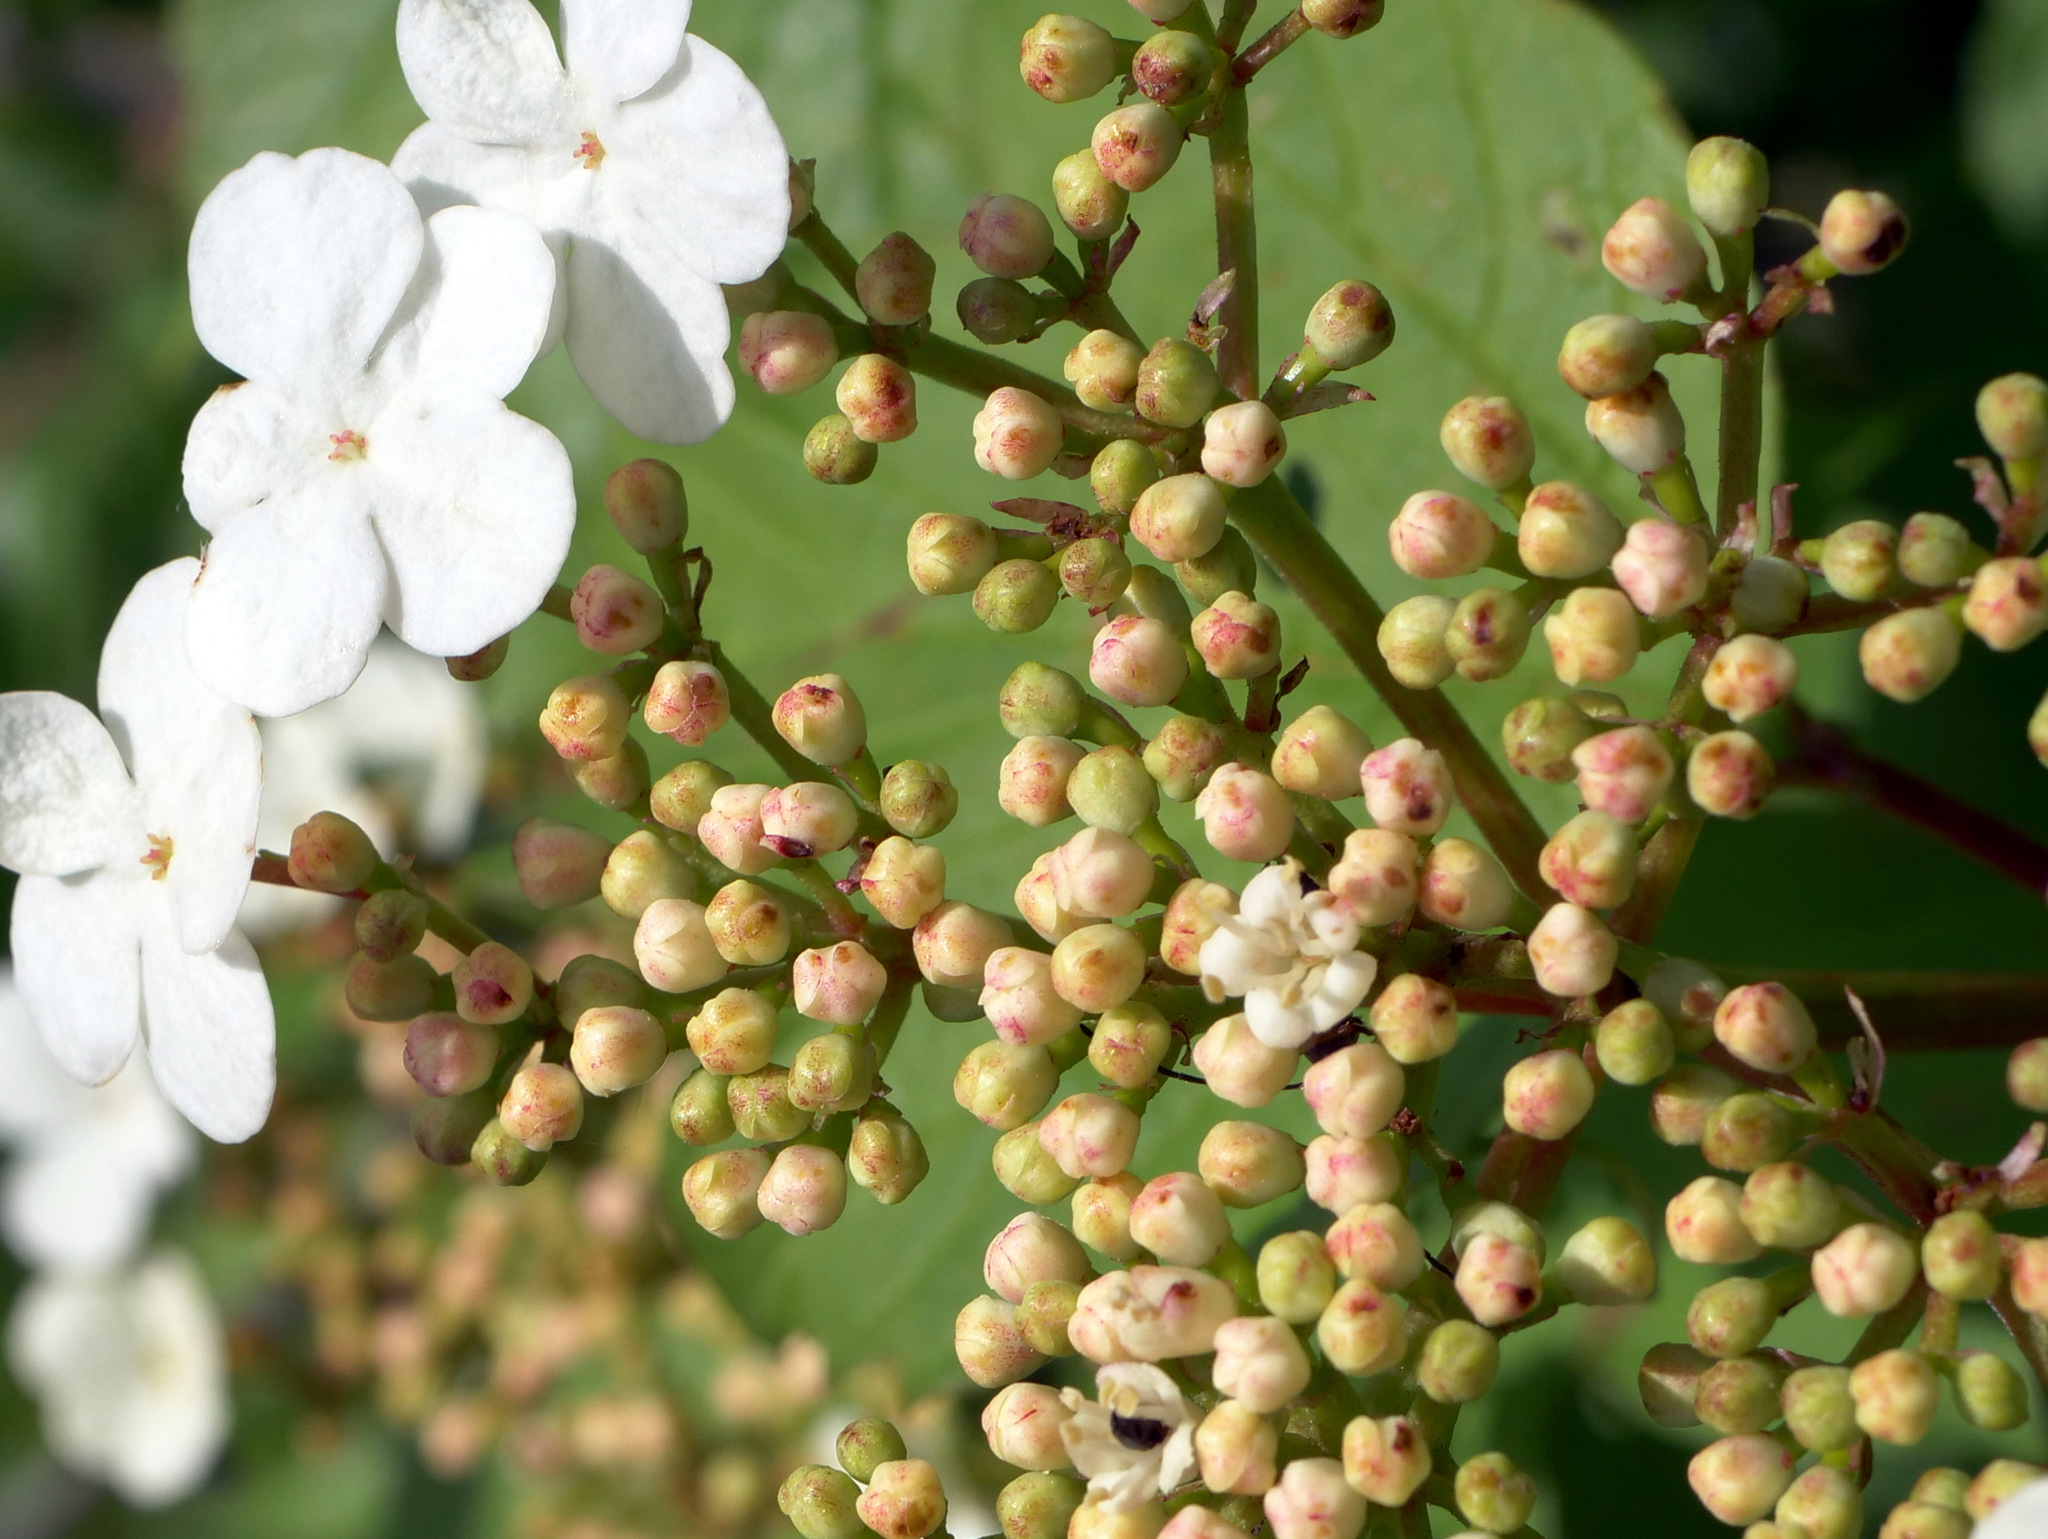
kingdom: Plantae
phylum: Tracheophyta
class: Magnoliopsida
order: Dipsacales
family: Viburnaceae
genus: Viburnum
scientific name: Viburnum opulus
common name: Guelder-rose
